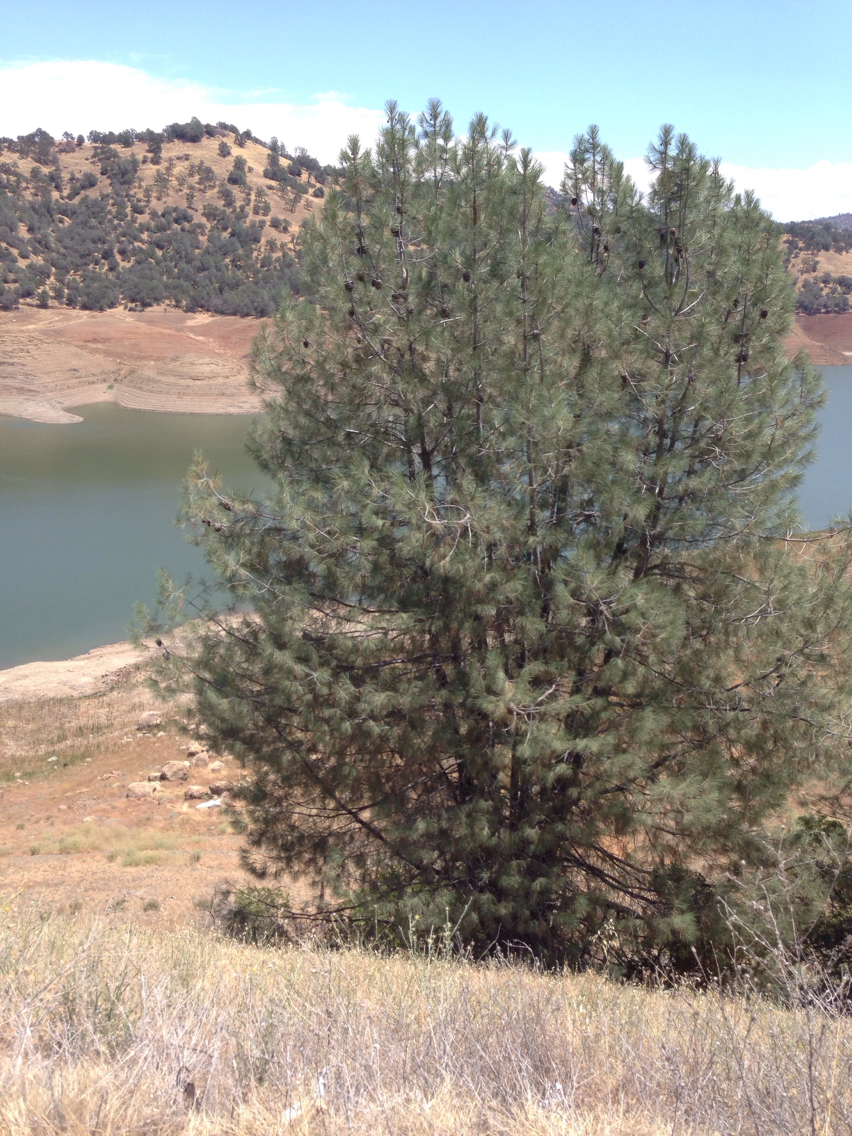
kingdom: Plantae
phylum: Tracheophyta
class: Pinopsida
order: Pinales
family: Pinaceae
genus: Pinus
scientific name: Pinus sabiniana
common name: Bull pine
